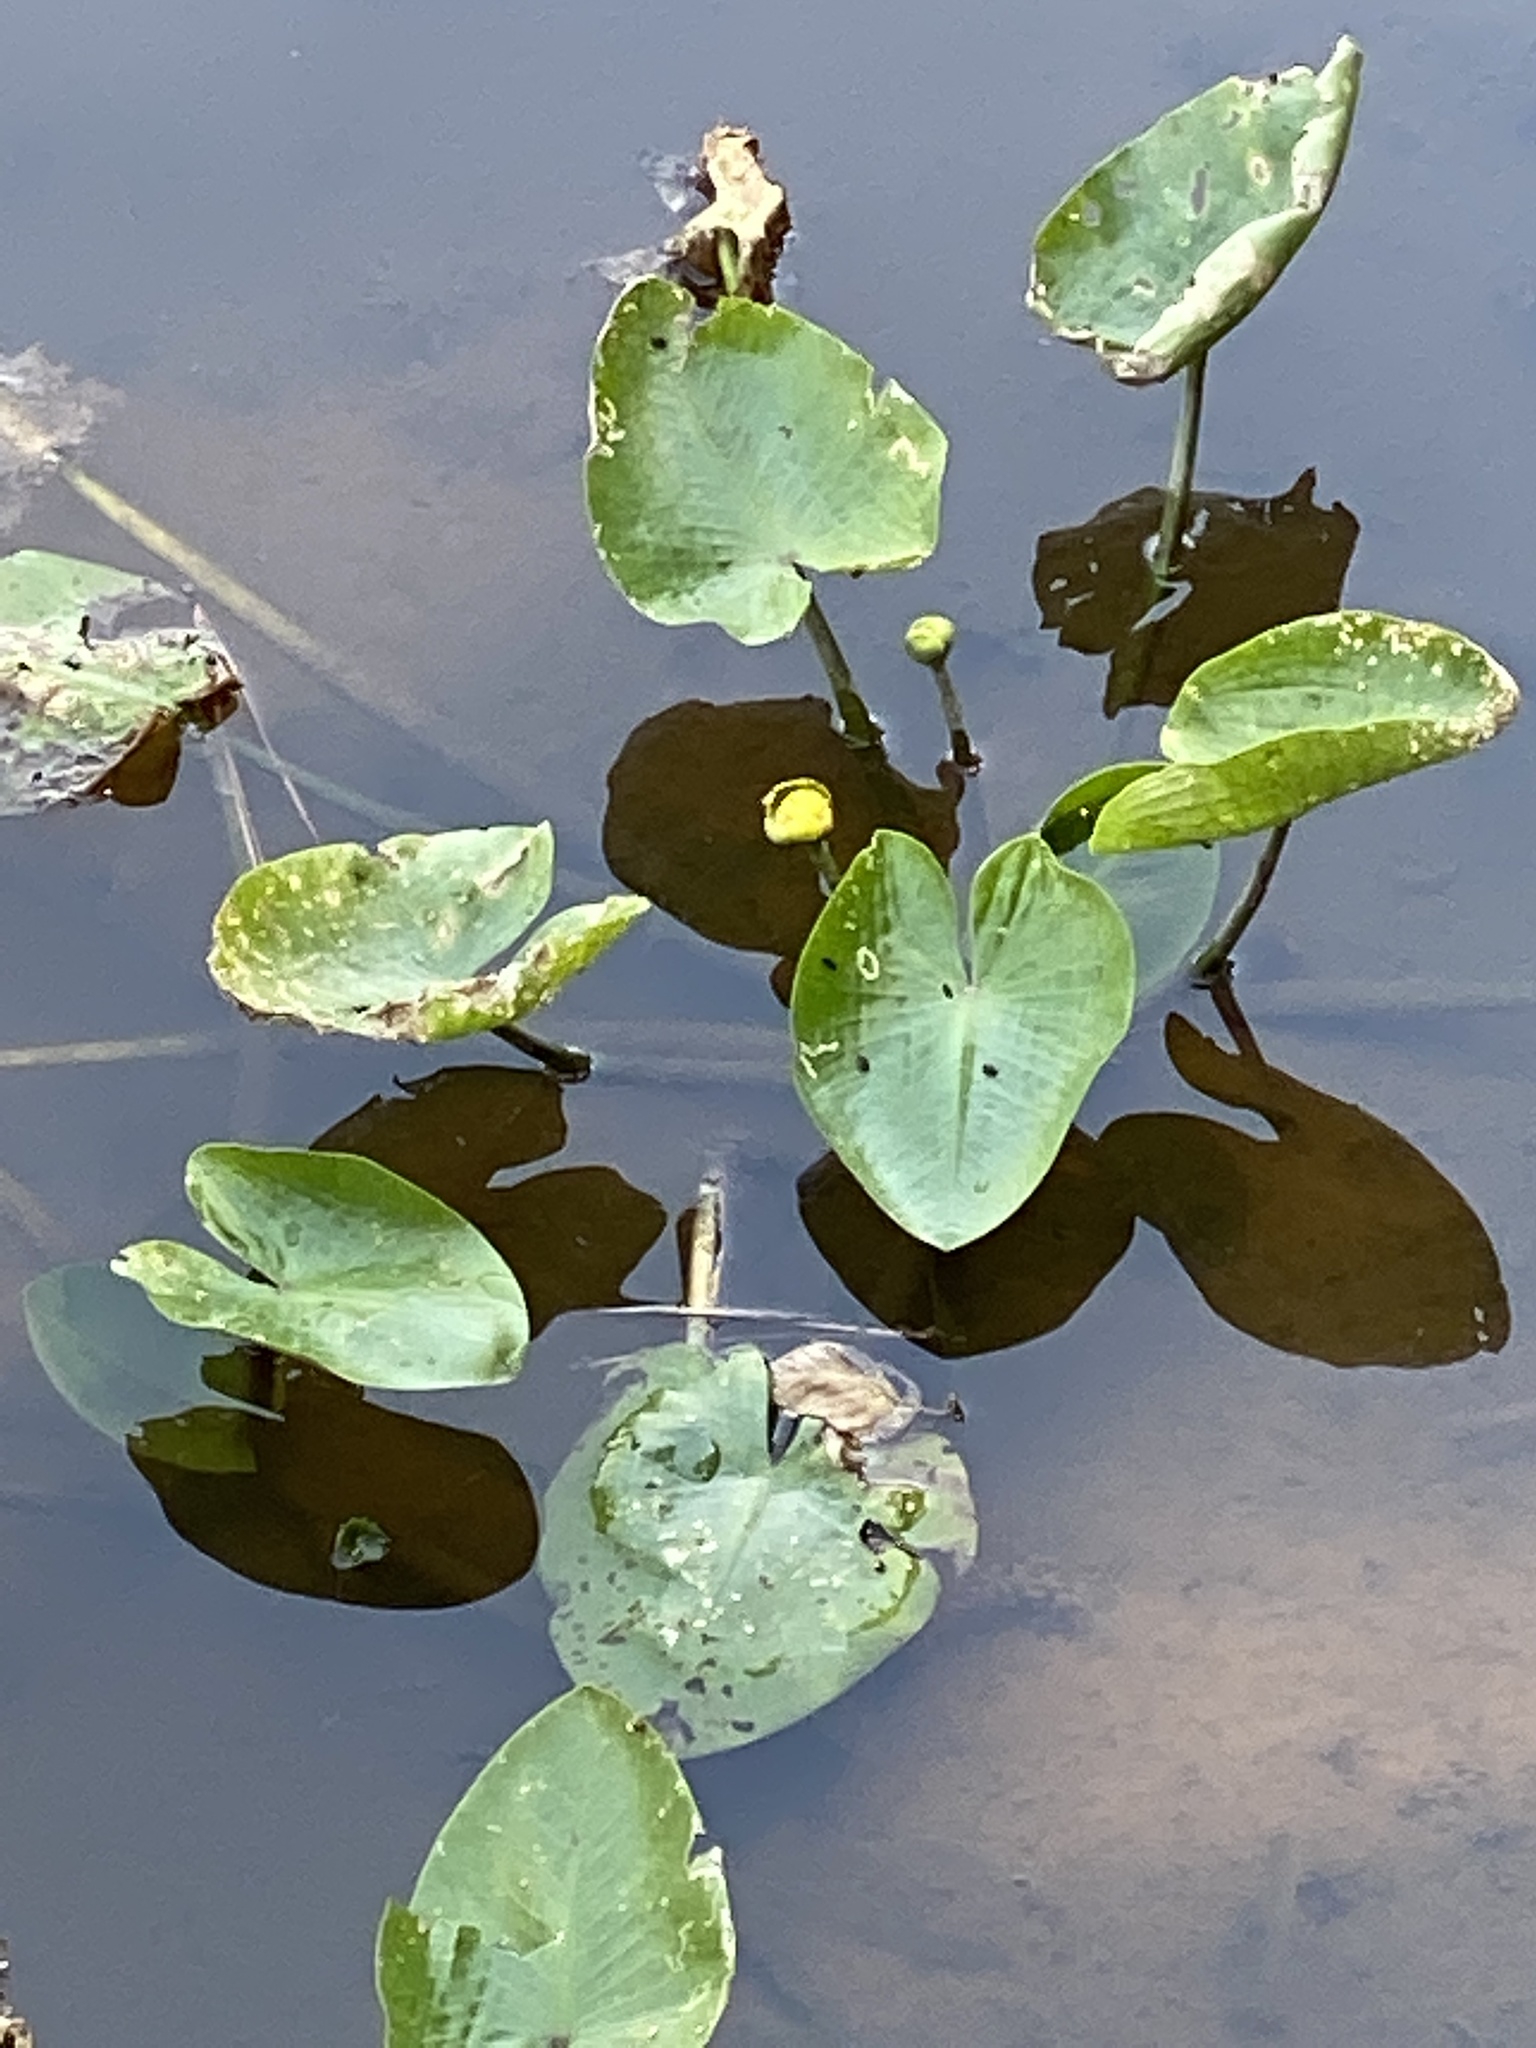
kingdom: Plantae
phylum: Tracheophyta
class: Magnoliopsida
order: Nymphaeales
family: Nymphaeaceae
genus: Nuphar
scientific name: Nuphar advena
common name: Spatter-dock
